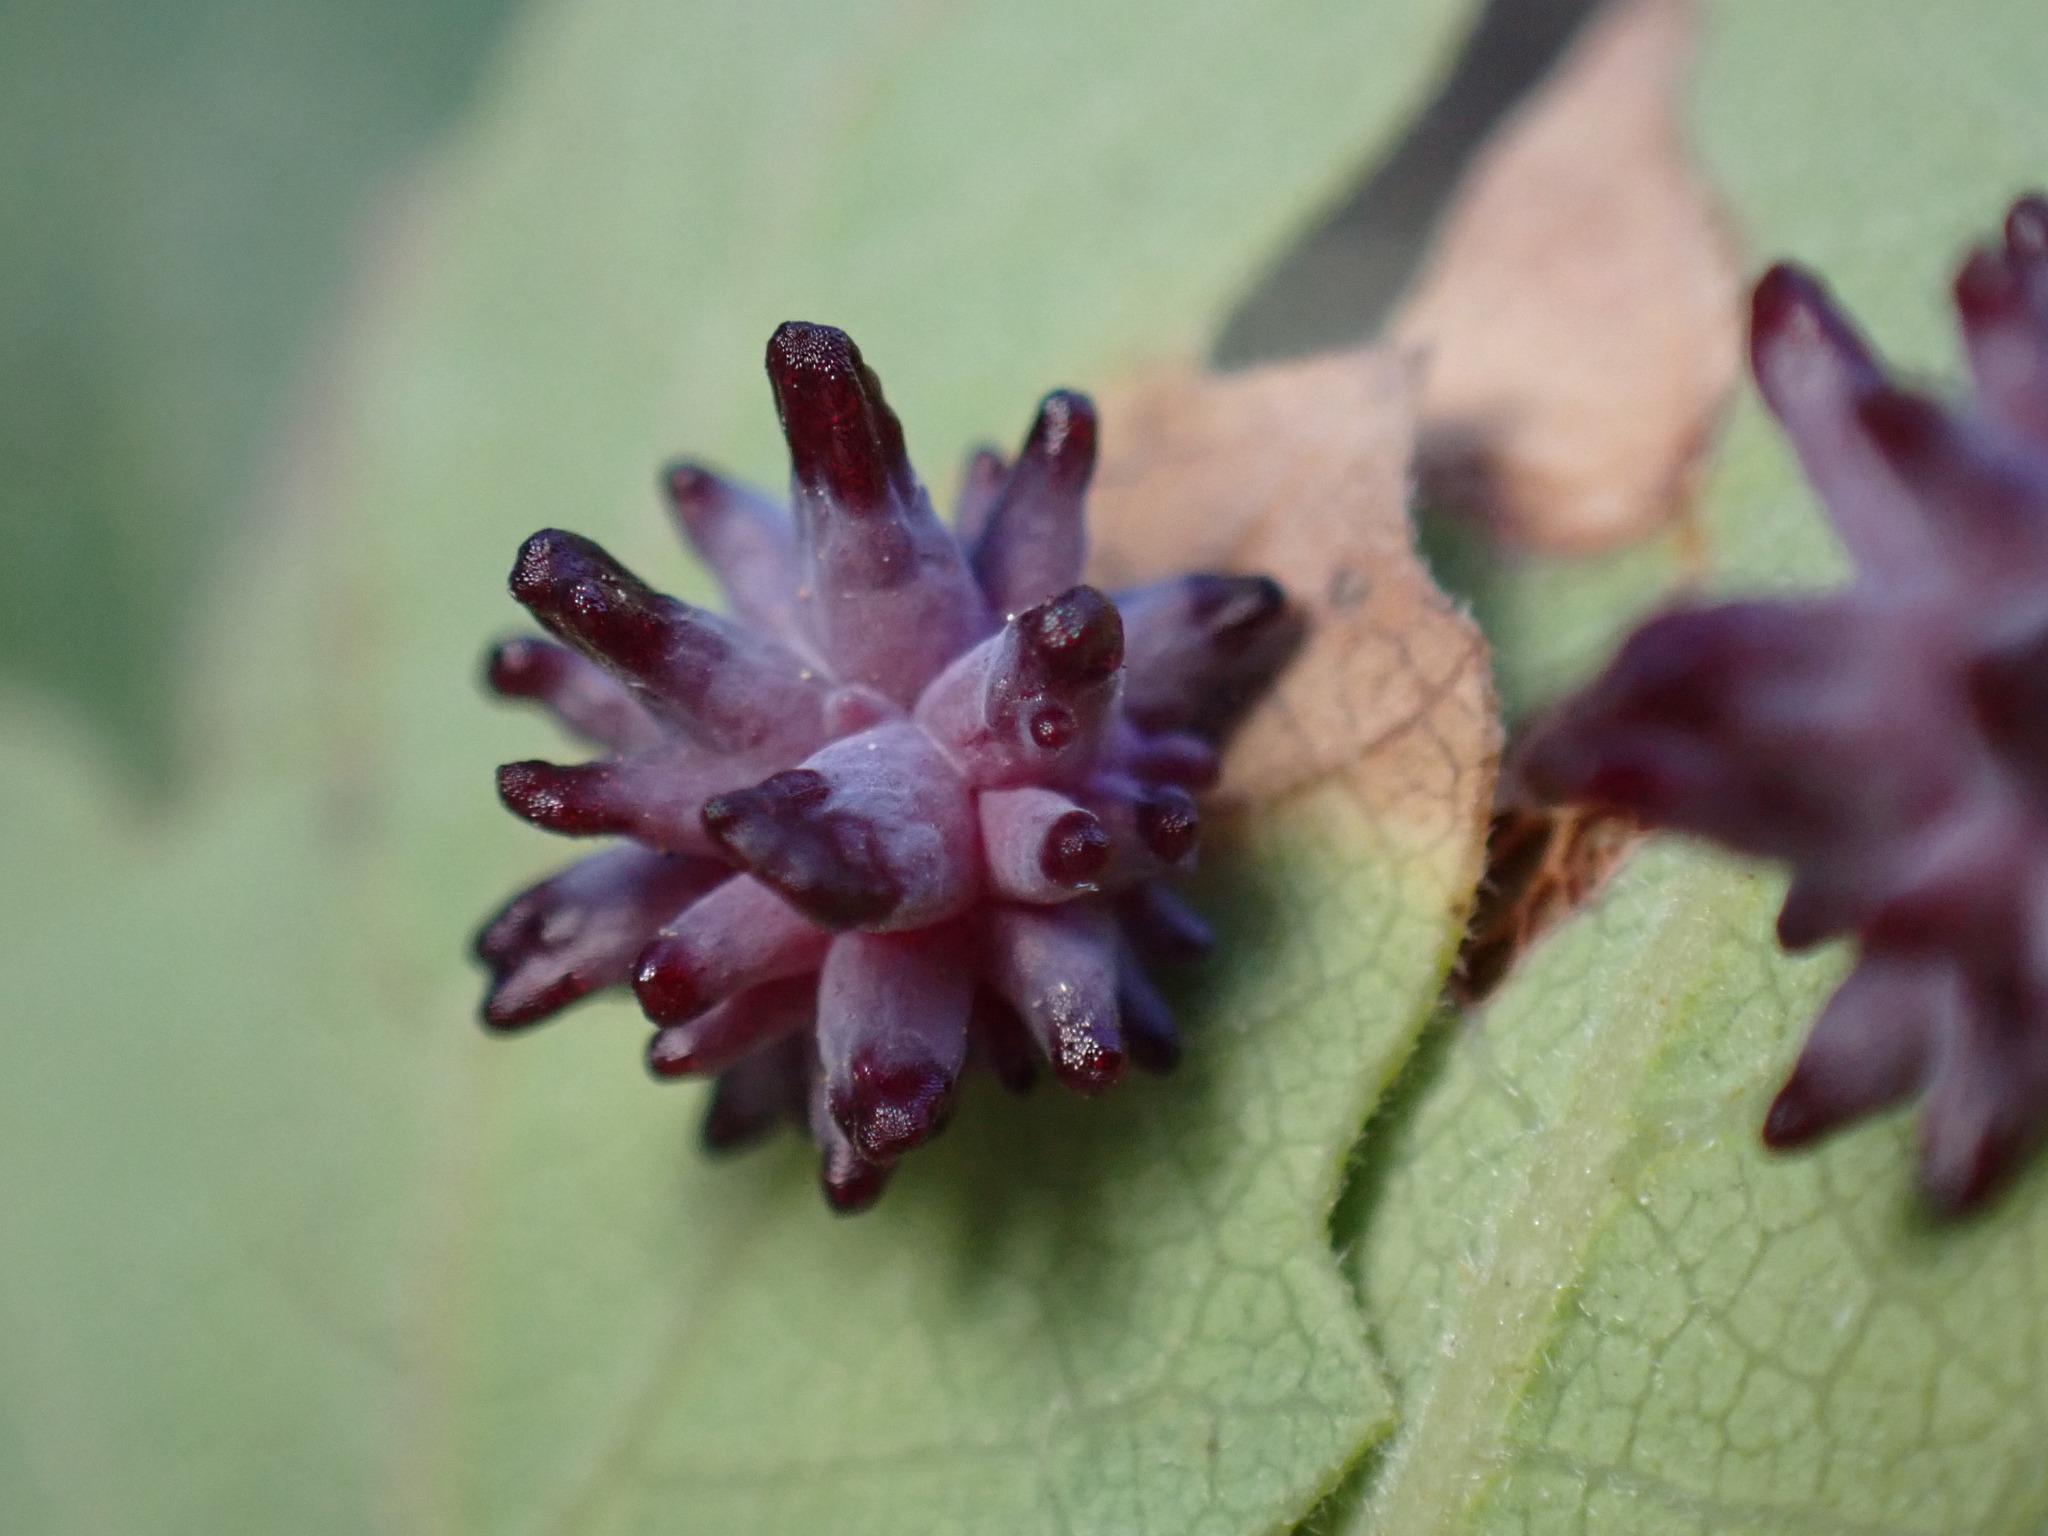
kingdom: Animalia
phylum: Arthropoda
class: Insecta
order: Hymenoptera
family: Cynipidae
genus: Cynips
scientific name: Cynips
